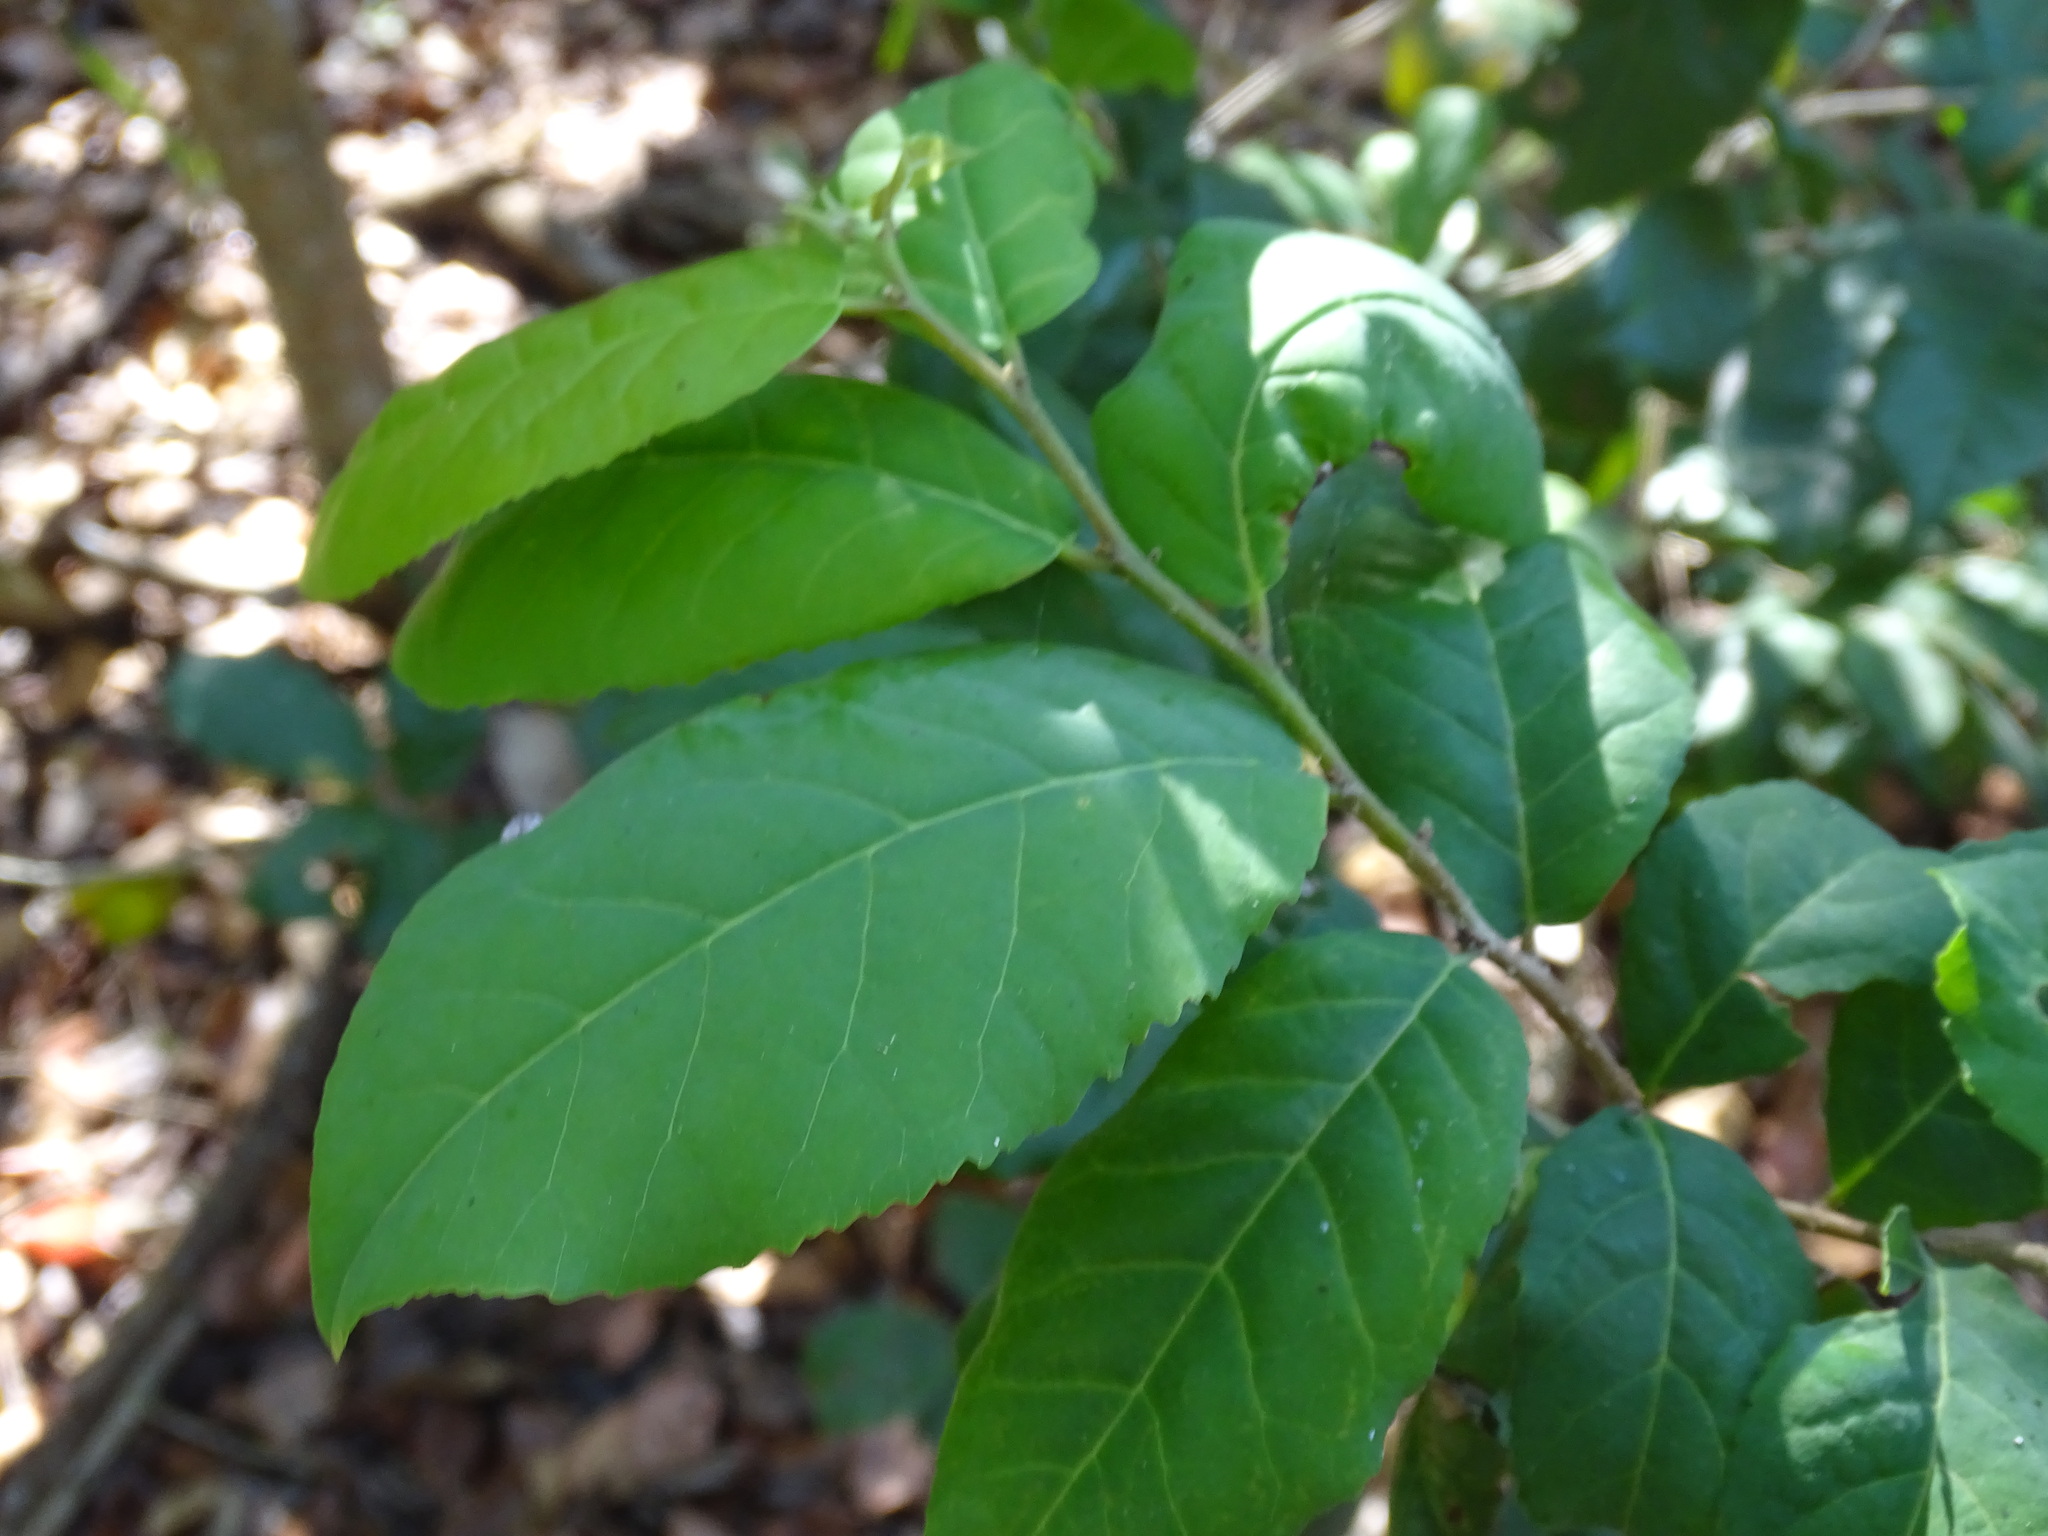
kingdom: Plantae
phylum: Tracheophyta
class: Magnoliopsida
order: Malpighiales
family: Salicaceae
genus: Casearia
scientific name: Casearia corymbosa
